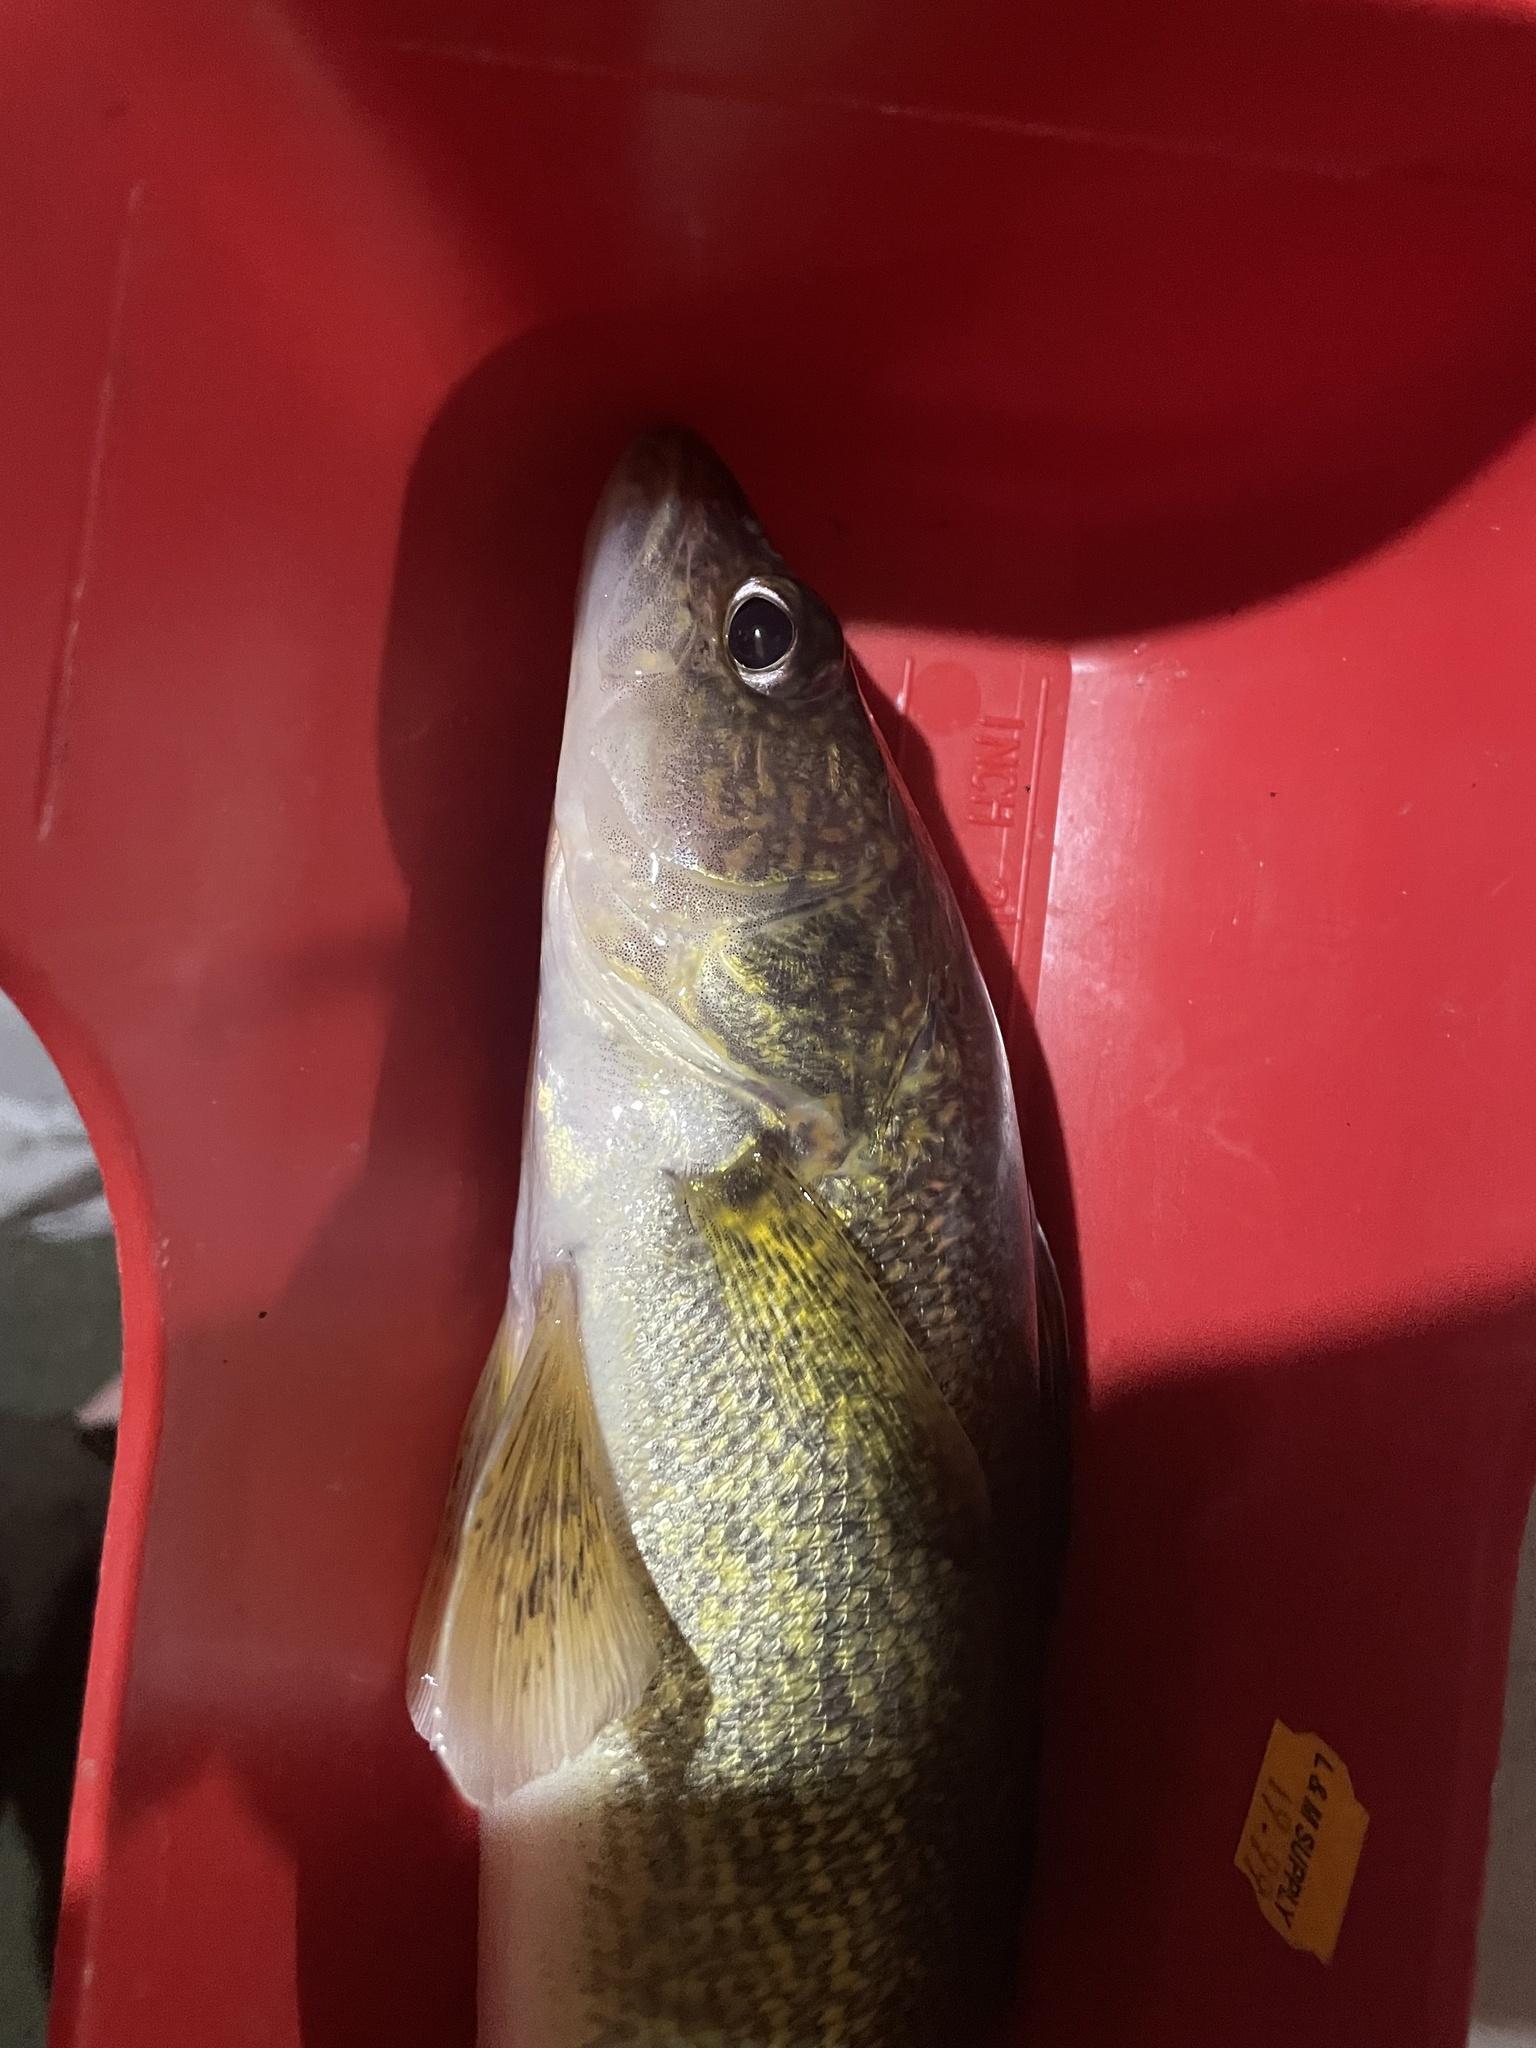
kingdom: Animalia
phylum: Chordata
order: Perciformes
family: Percidae
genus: Sander
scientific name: Sander vitreus
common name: Walleye
